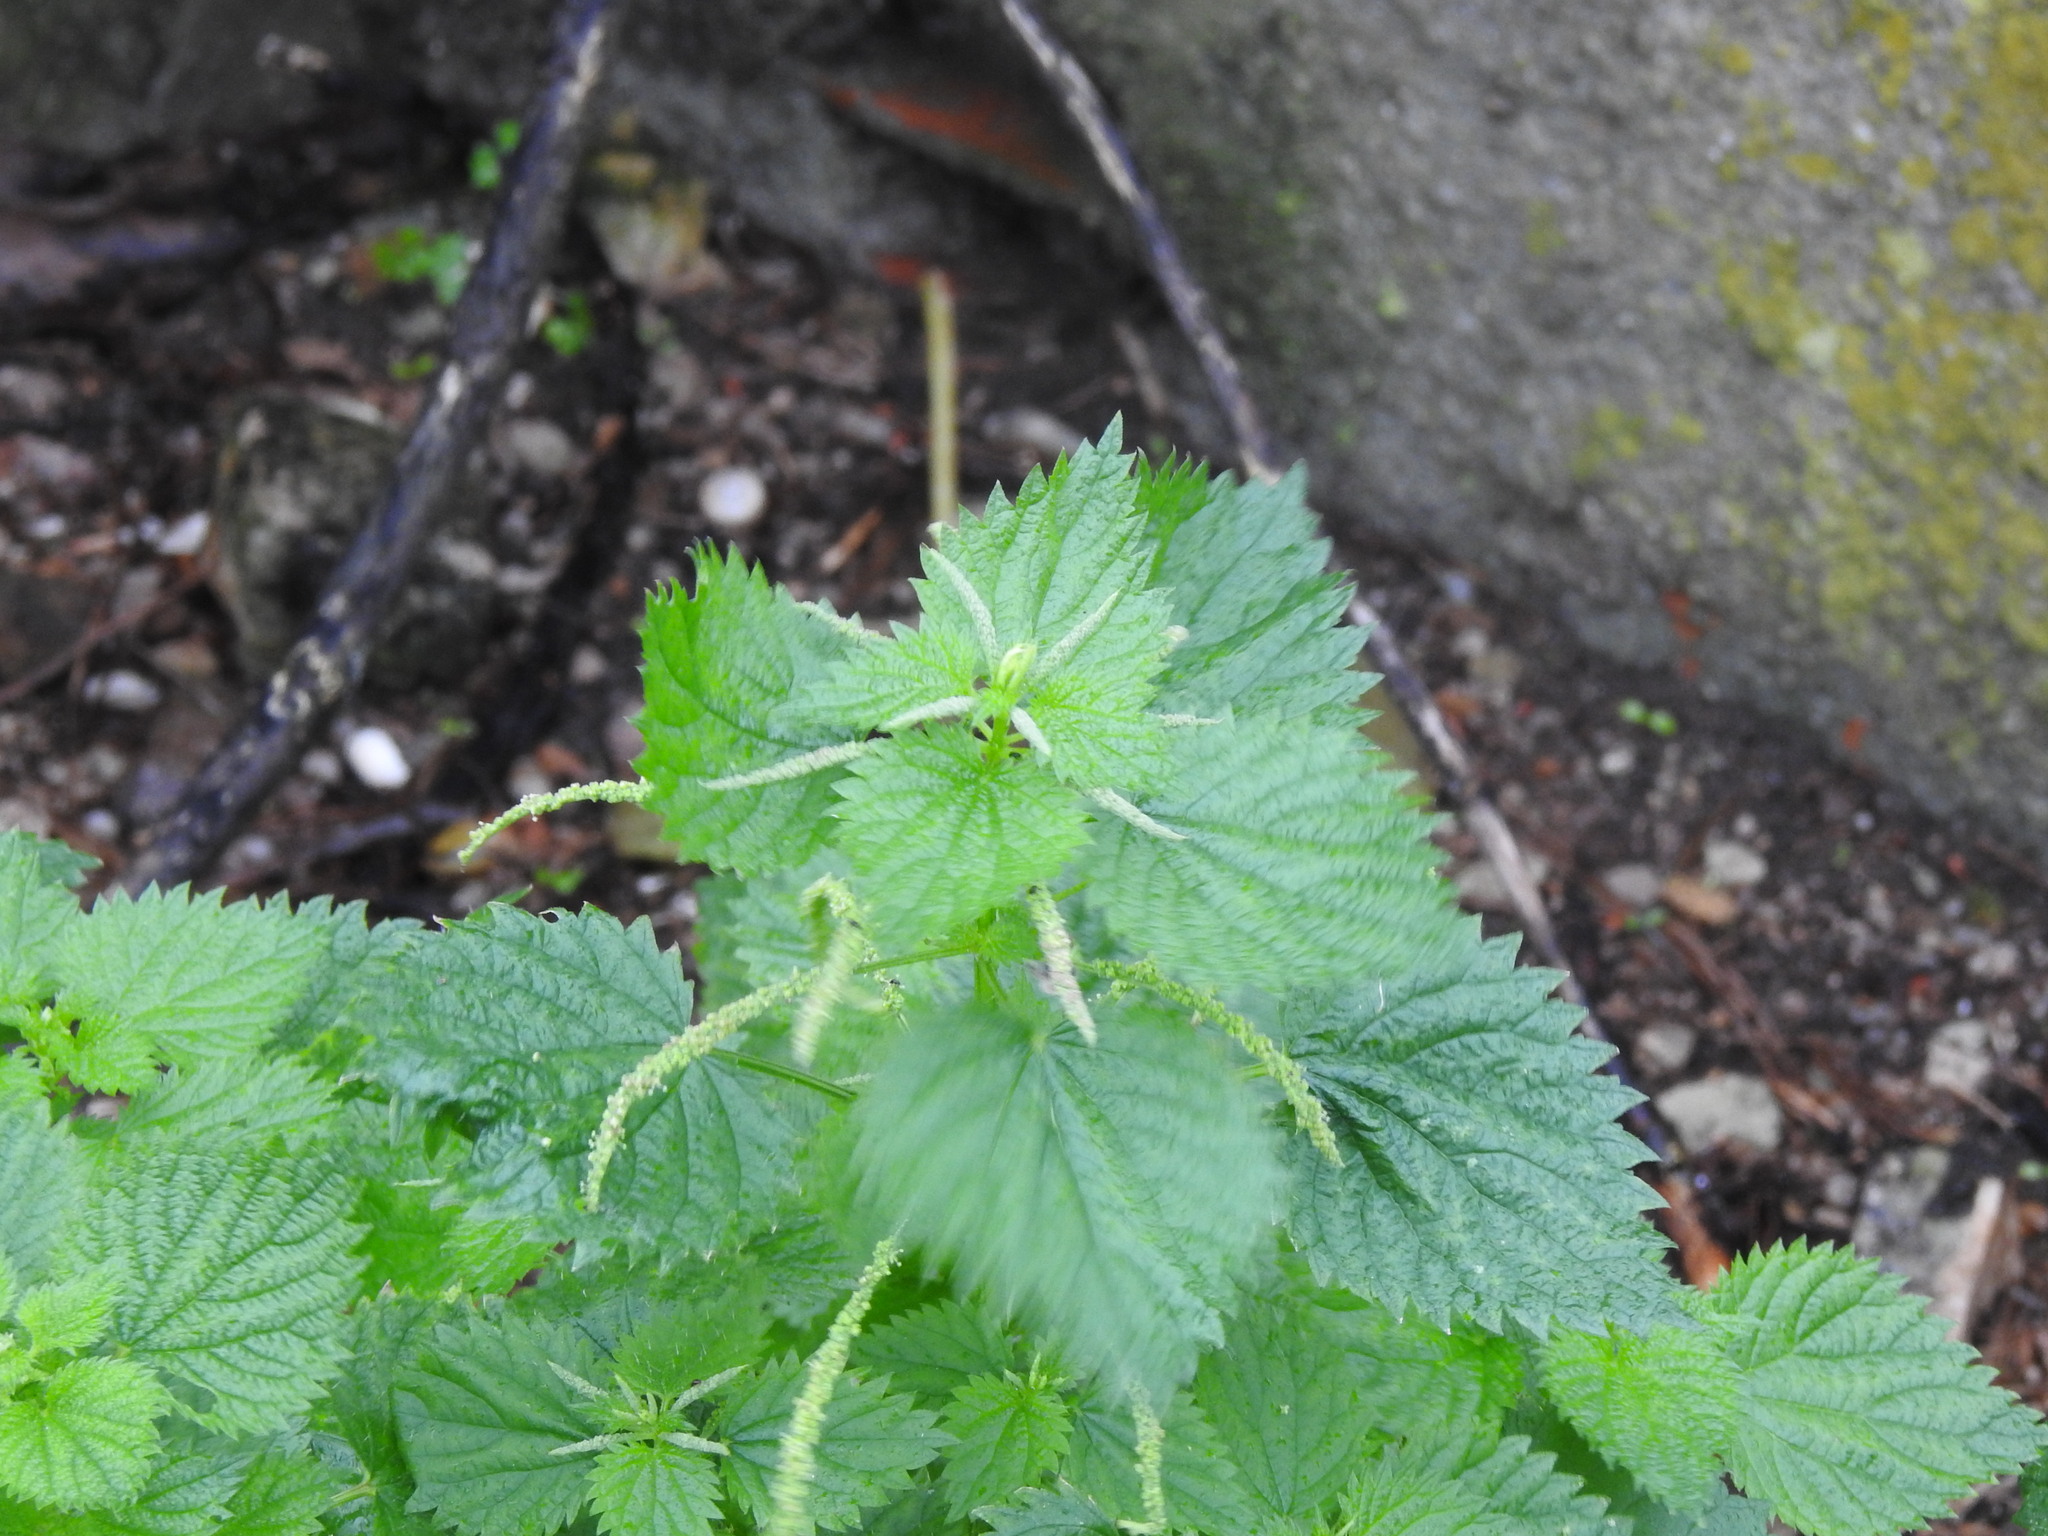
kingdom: Plantae
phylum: Tracheophyta
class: Magnoliopsida
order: Rosales
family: Urticaceae
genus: Urtica
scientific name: Urtica membranacea
